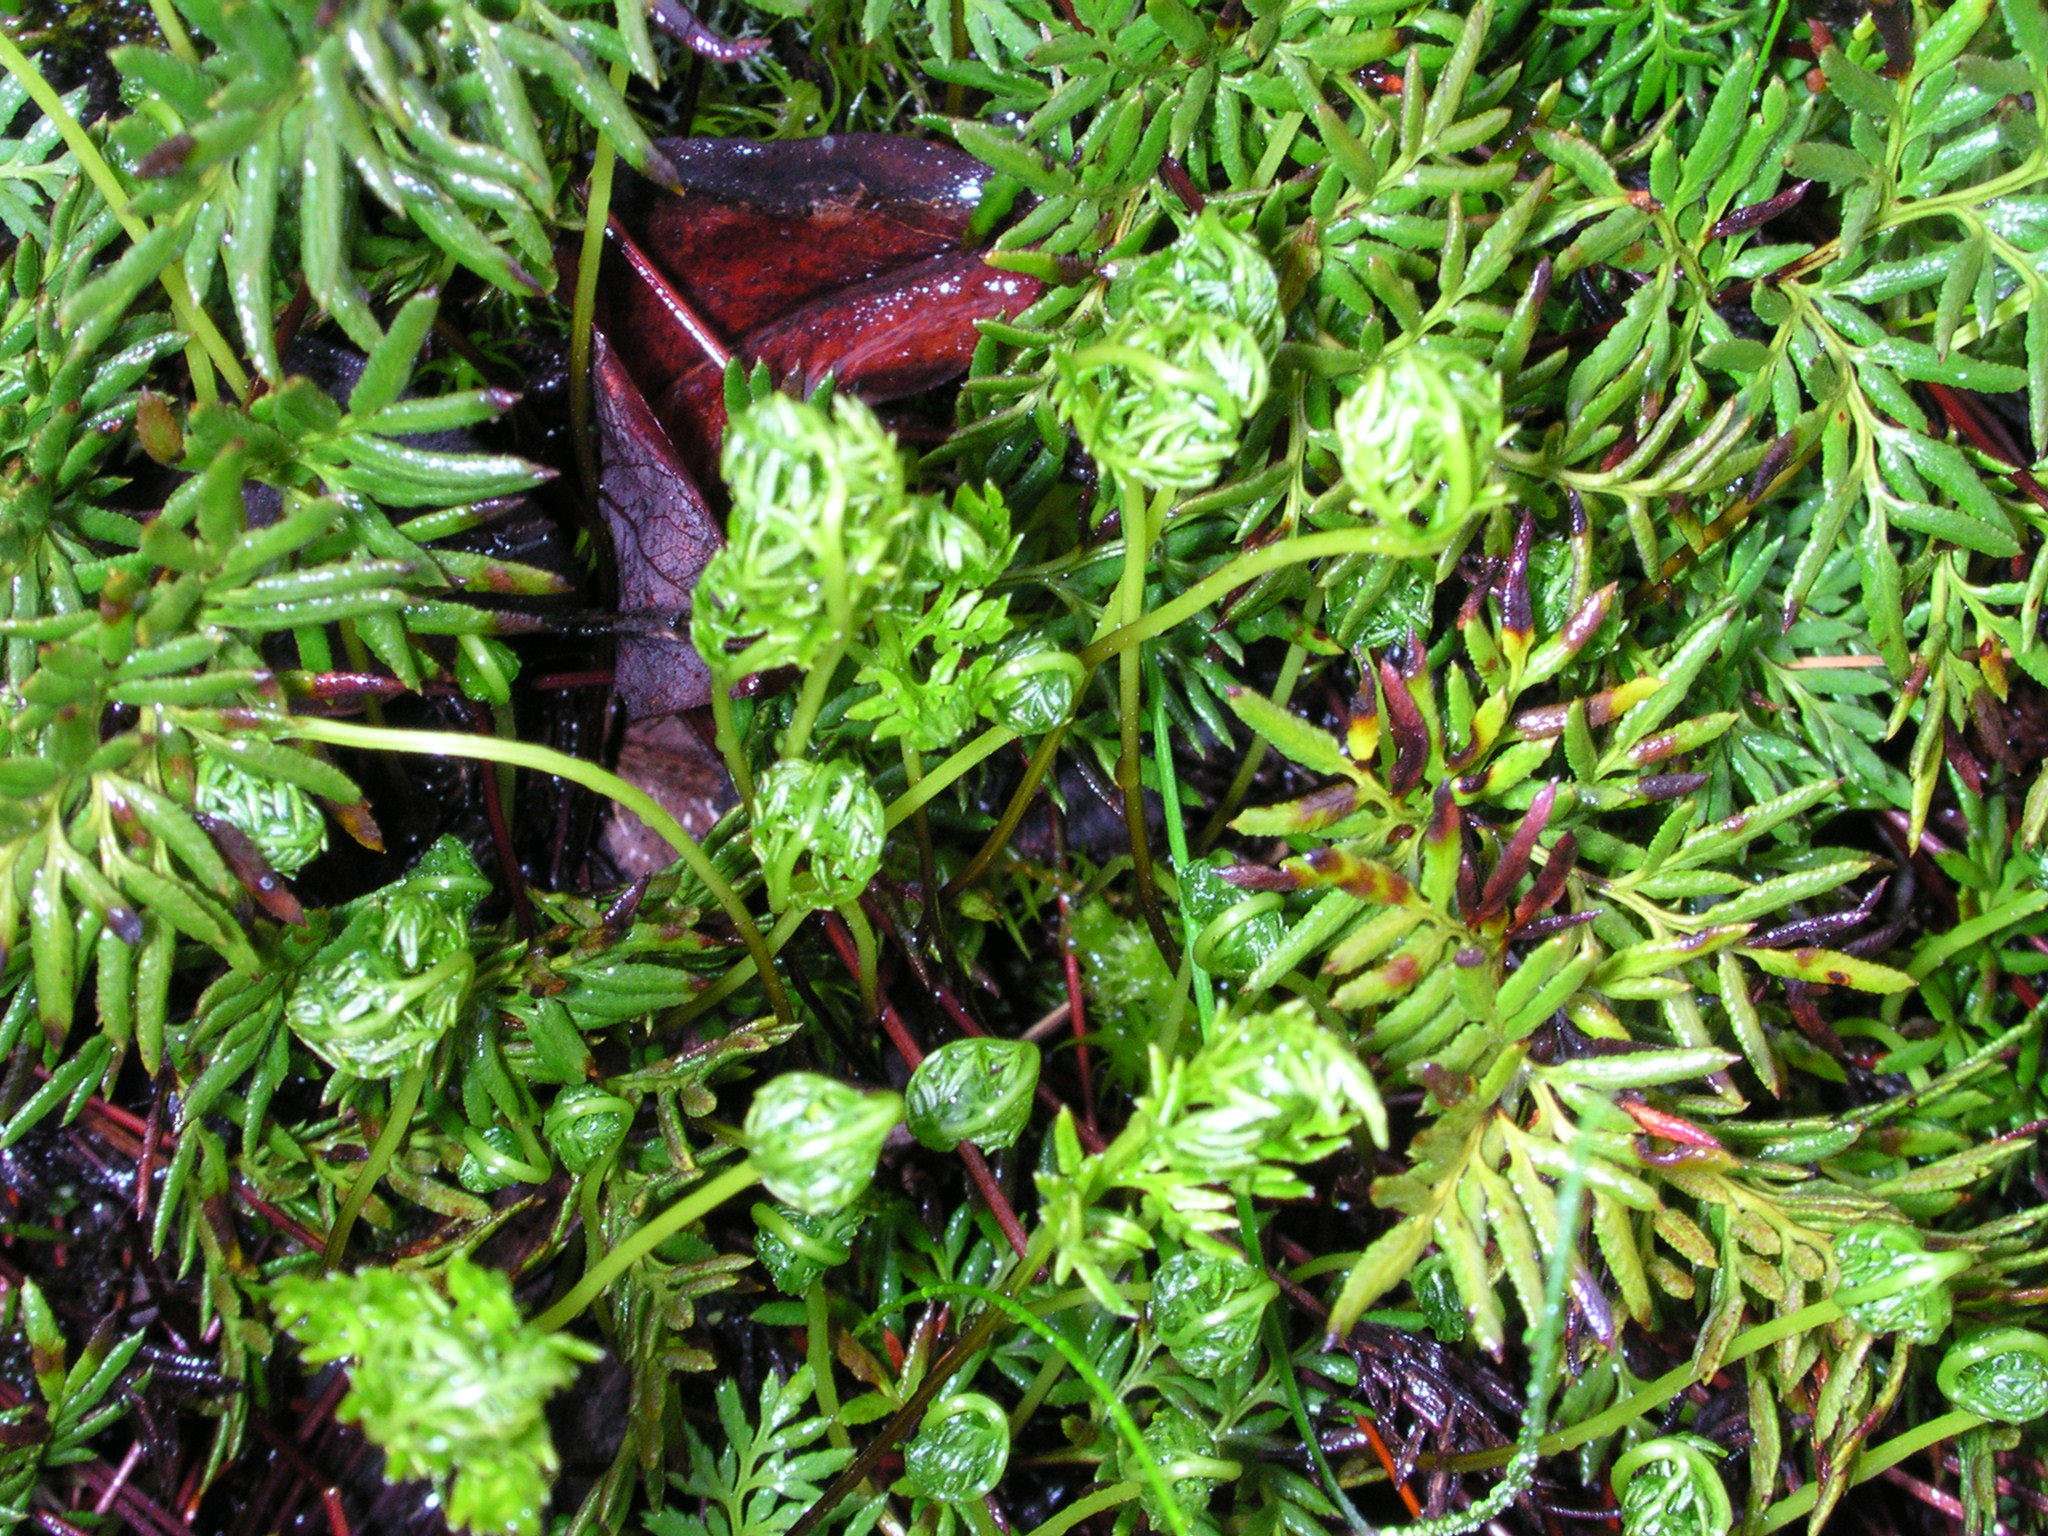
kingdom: Plantae
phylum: Tracheophyta
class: Polypodiopsida
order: Polypodiales
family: Pteridaceae
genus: Aspidotis
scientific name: Aspidotis densa
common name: Indian's dream
